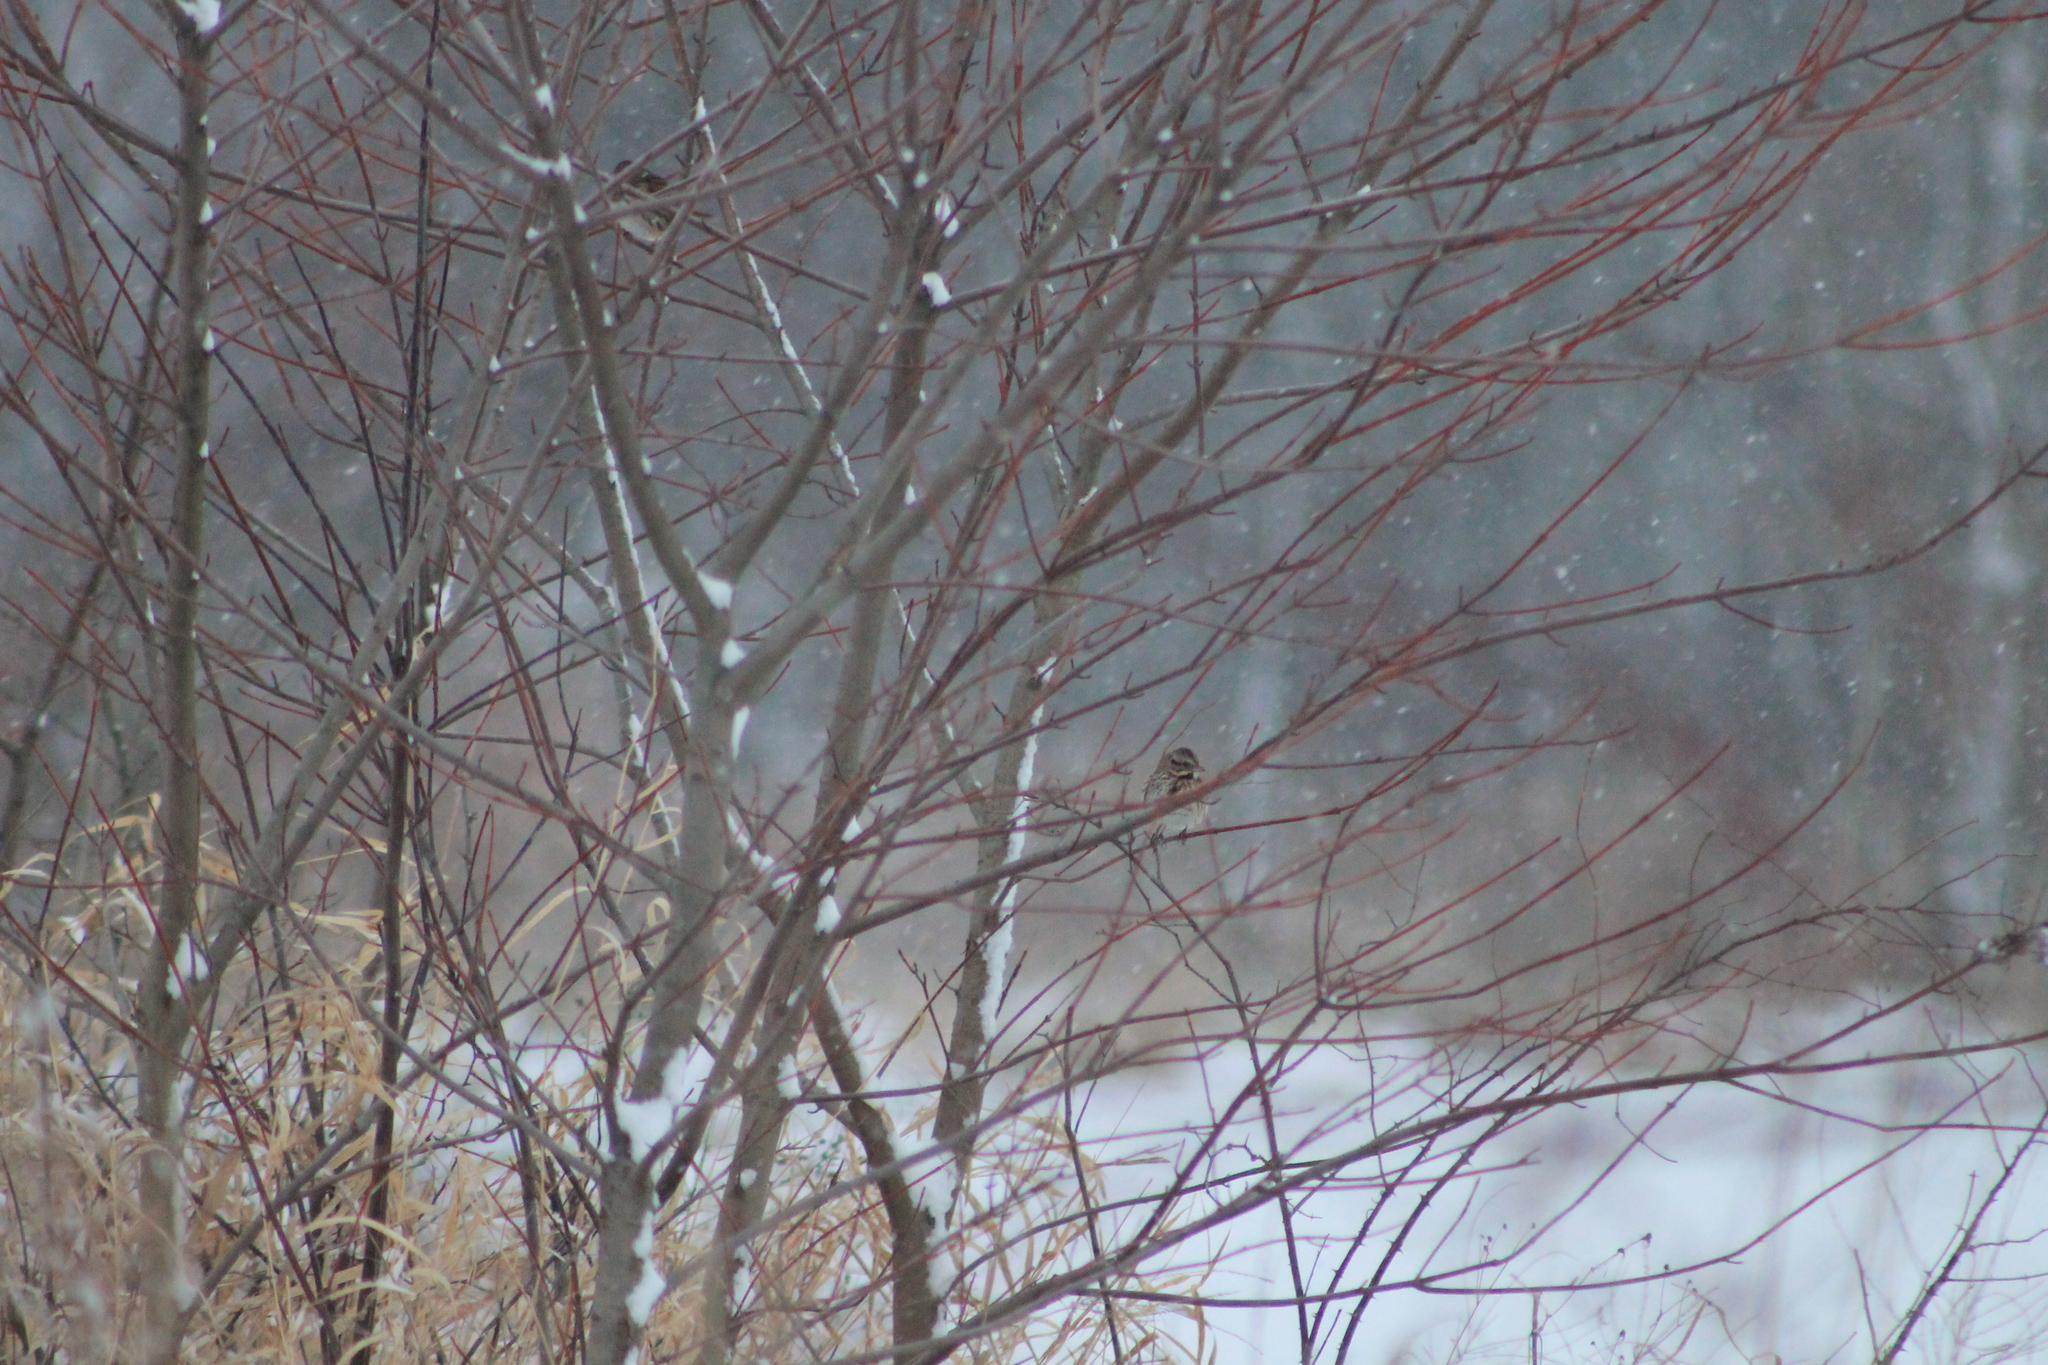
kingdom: Animalia
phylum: Chordata
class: Aves
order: Passeriformes
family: Passerellidae
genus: Melospiza
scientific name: Melospiza melodia
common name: Song sparrow
